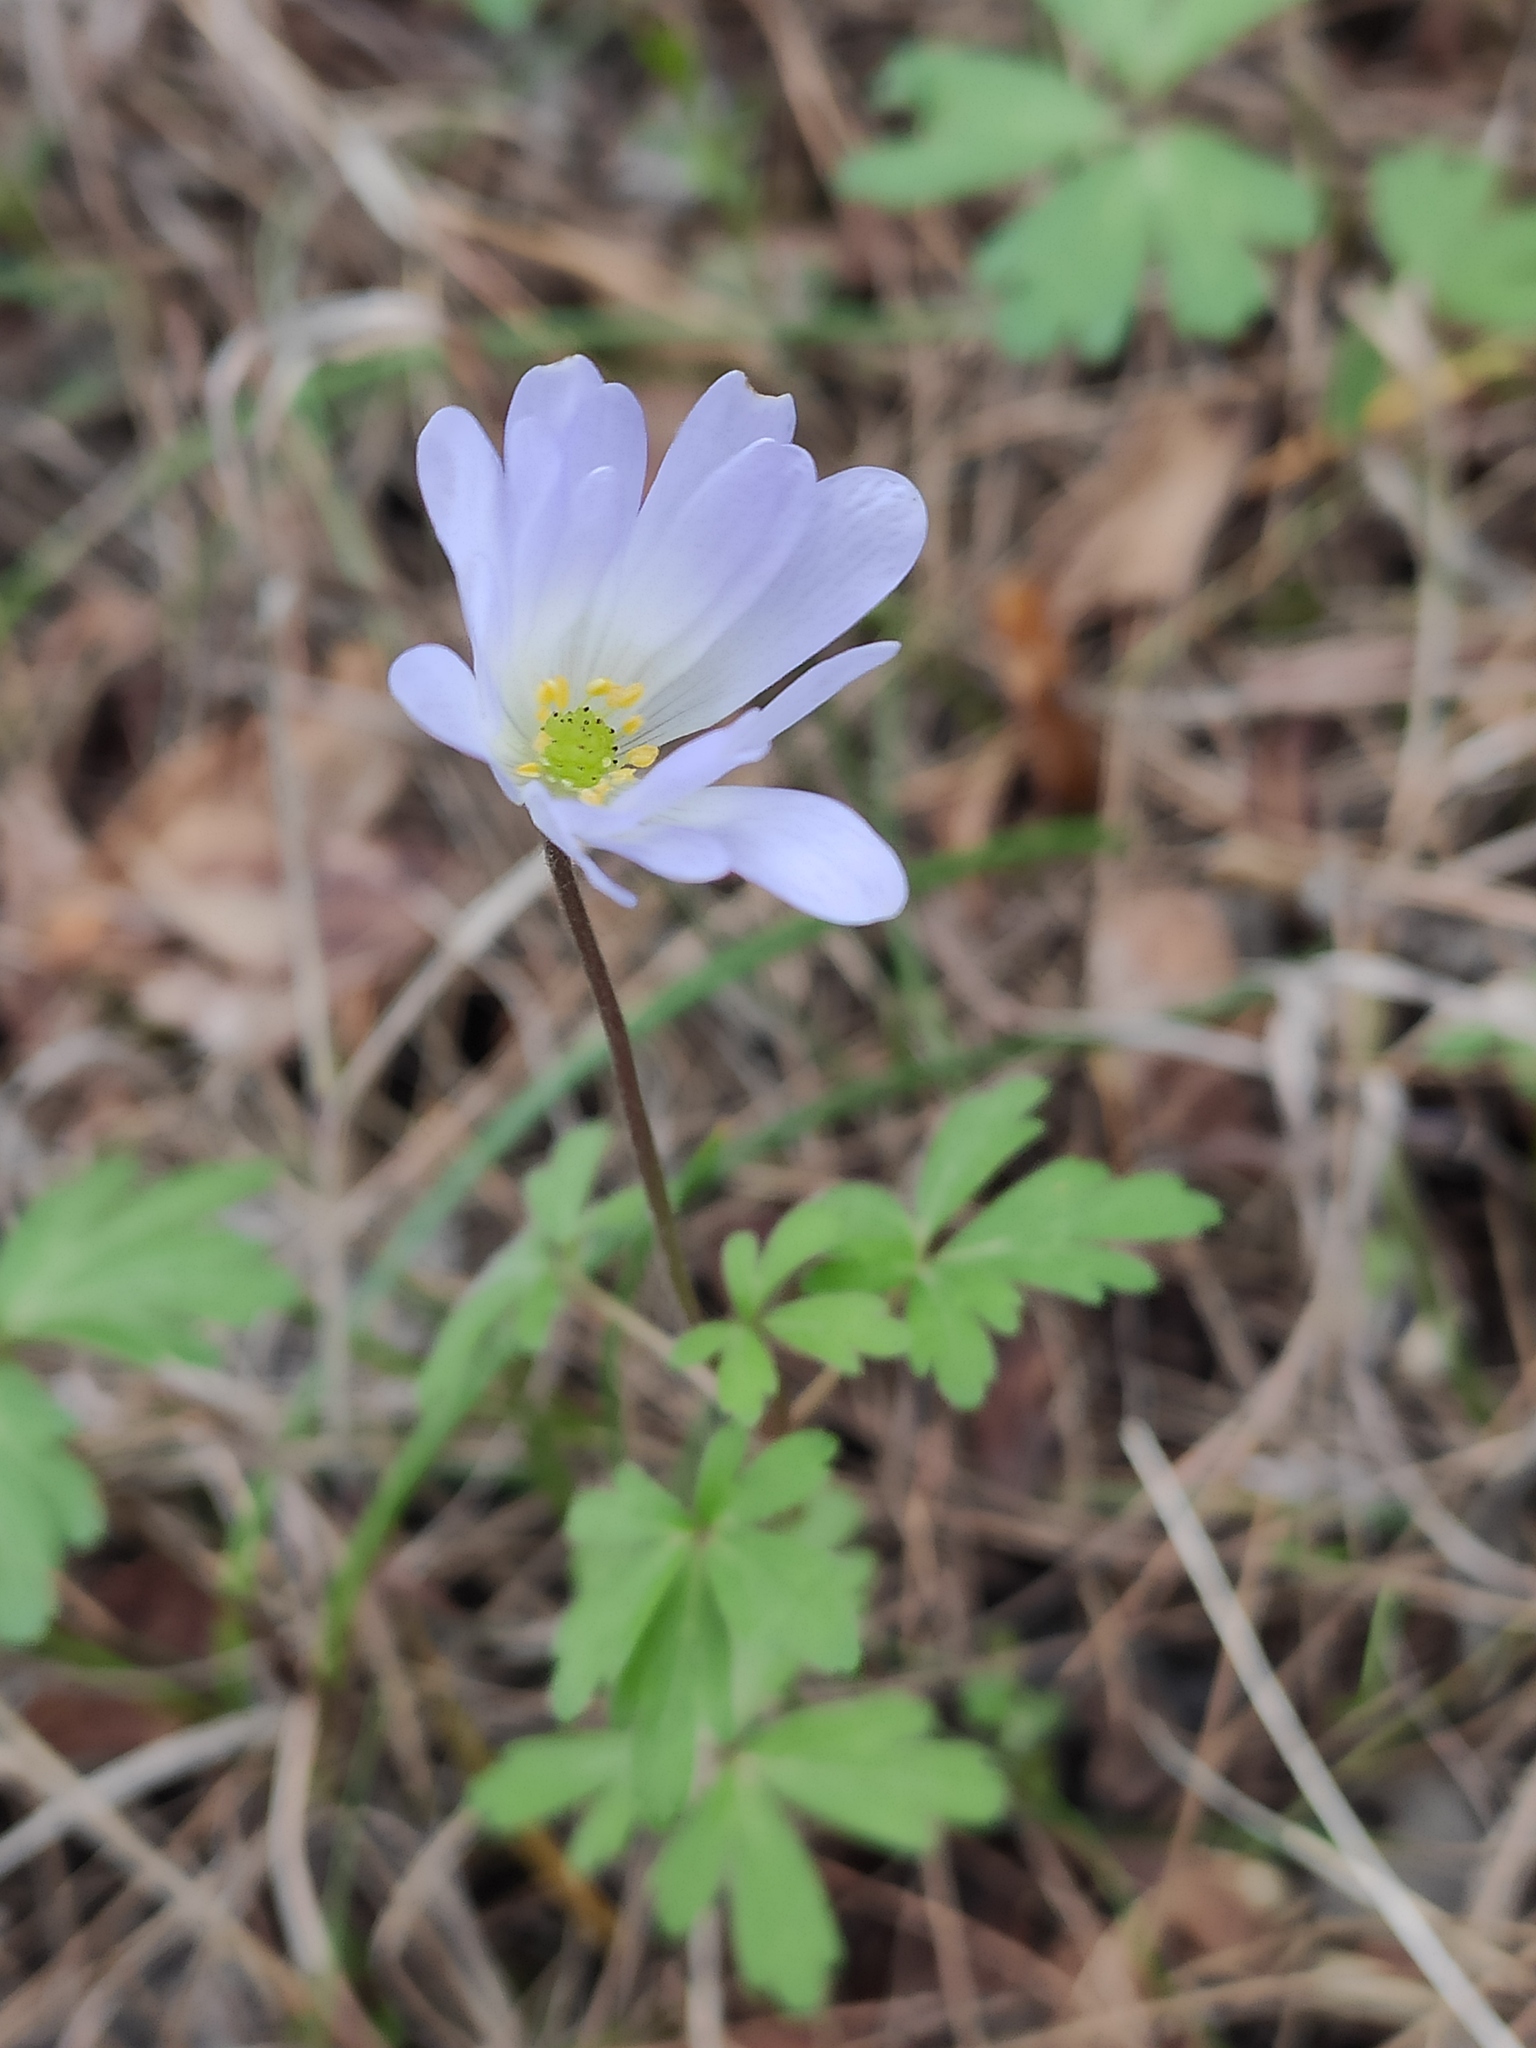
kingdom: Plantae
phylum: Tracheophyta
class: Magnoliopsida
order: Ranunculales
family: Ranunculaceae
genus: Anemone
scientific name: Anemone blanda
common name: Balkan anemone
